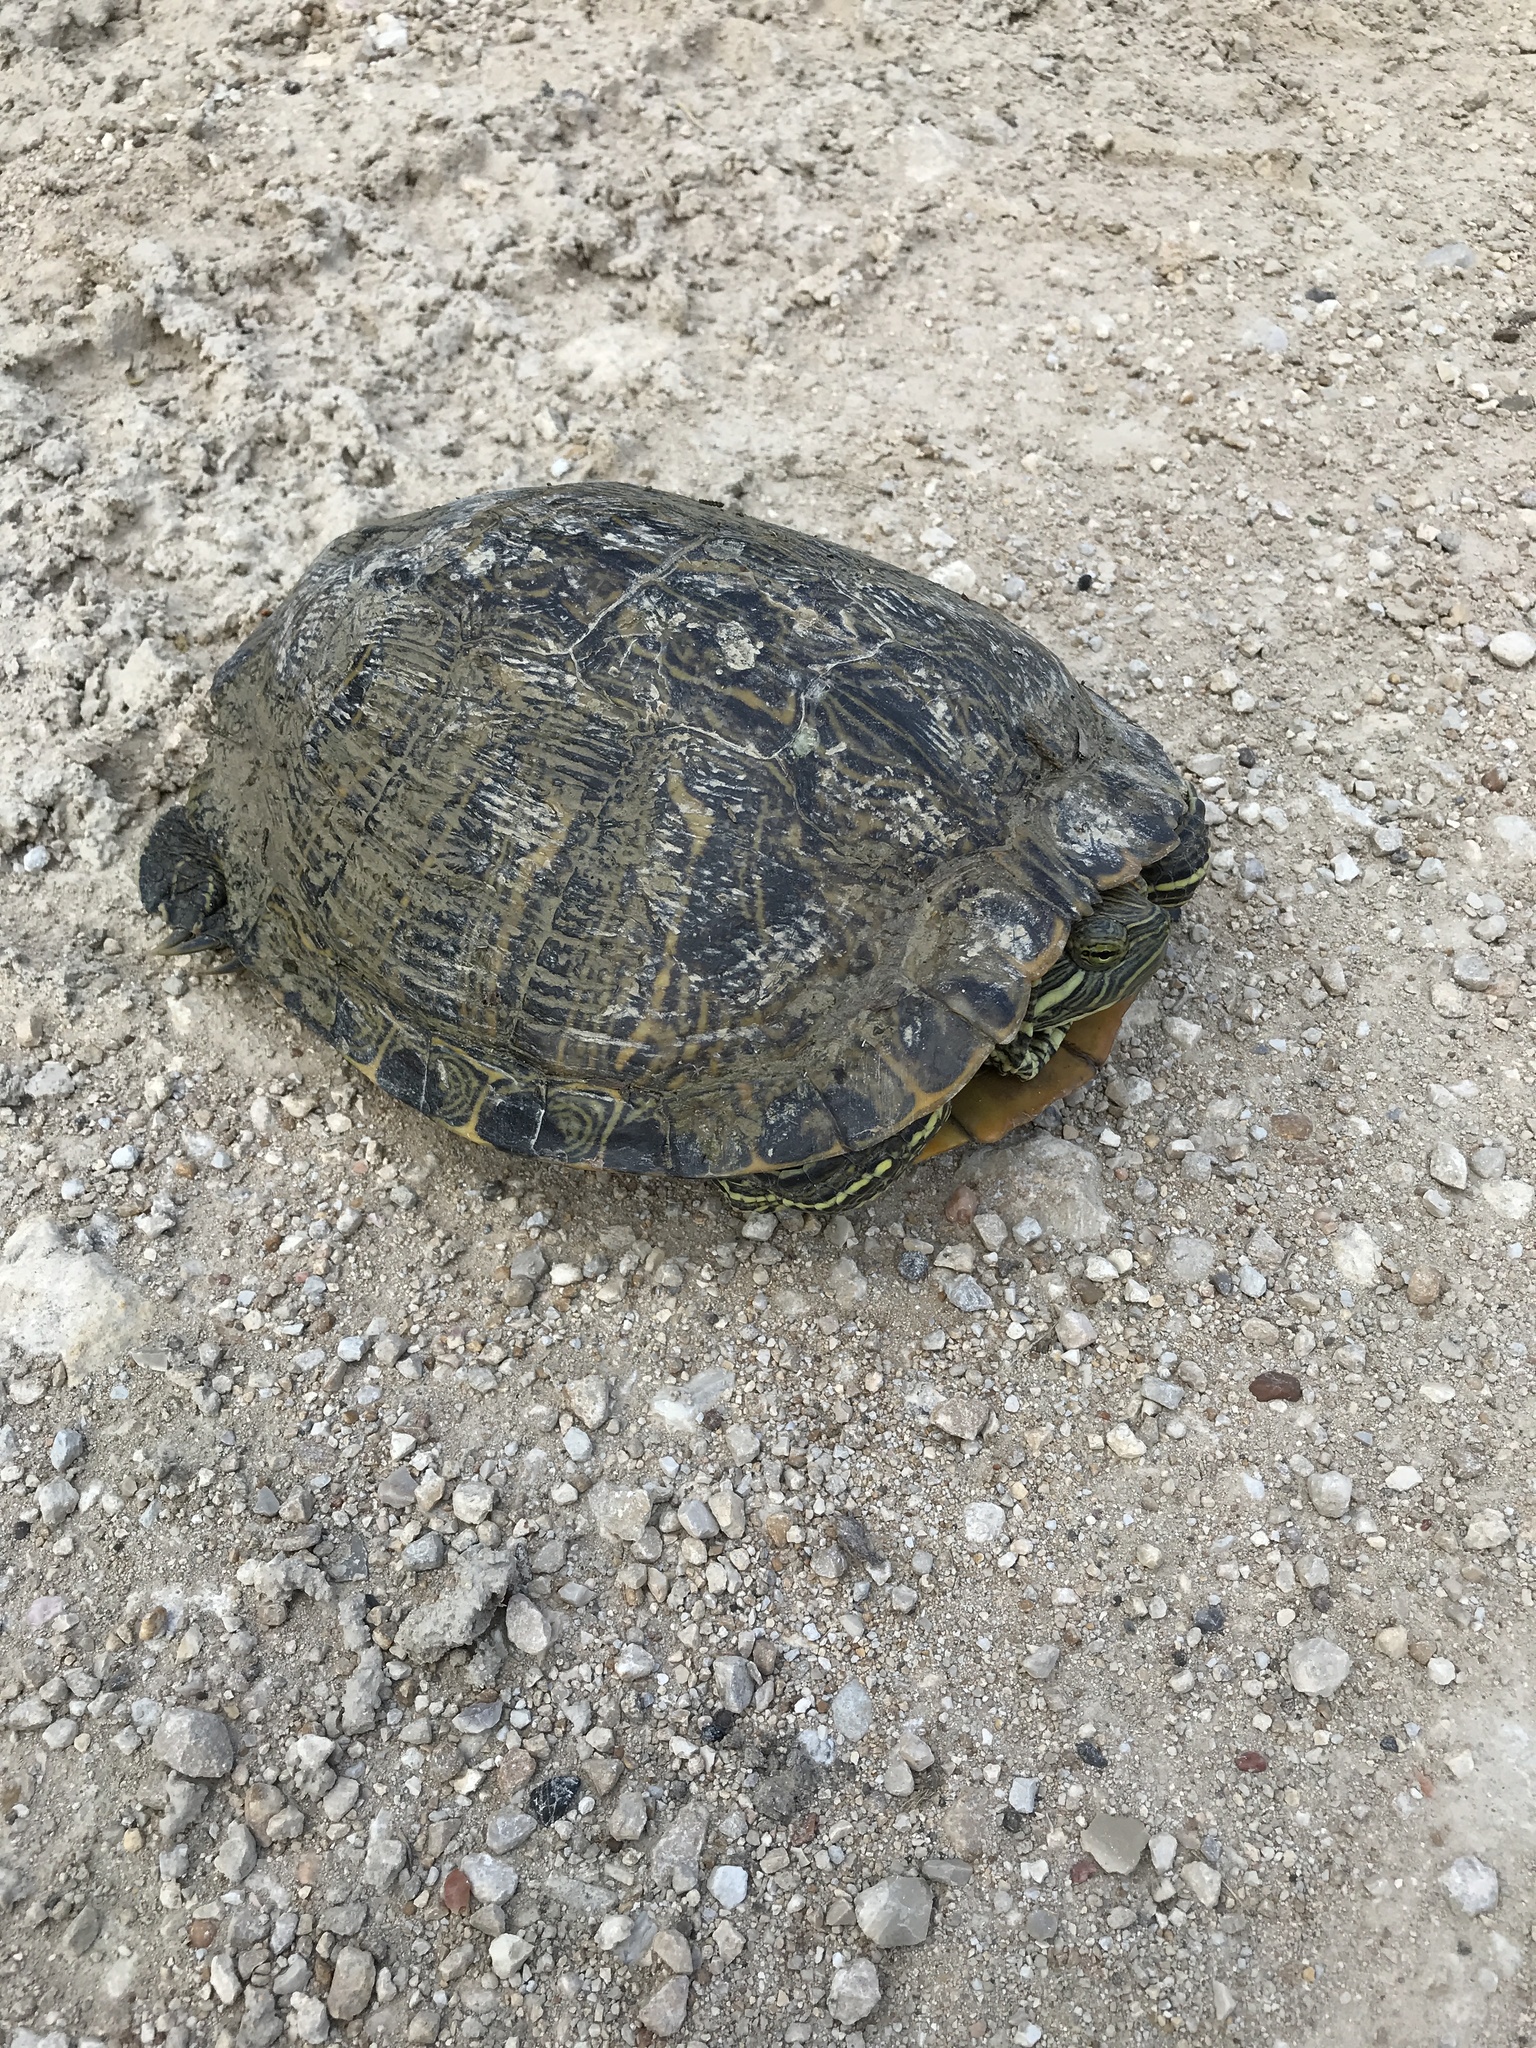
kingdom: Animalia
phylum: Chordata
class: Testudines
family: Emydidae
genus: Trachemys
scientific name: Trachemys scripta
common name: Slider
